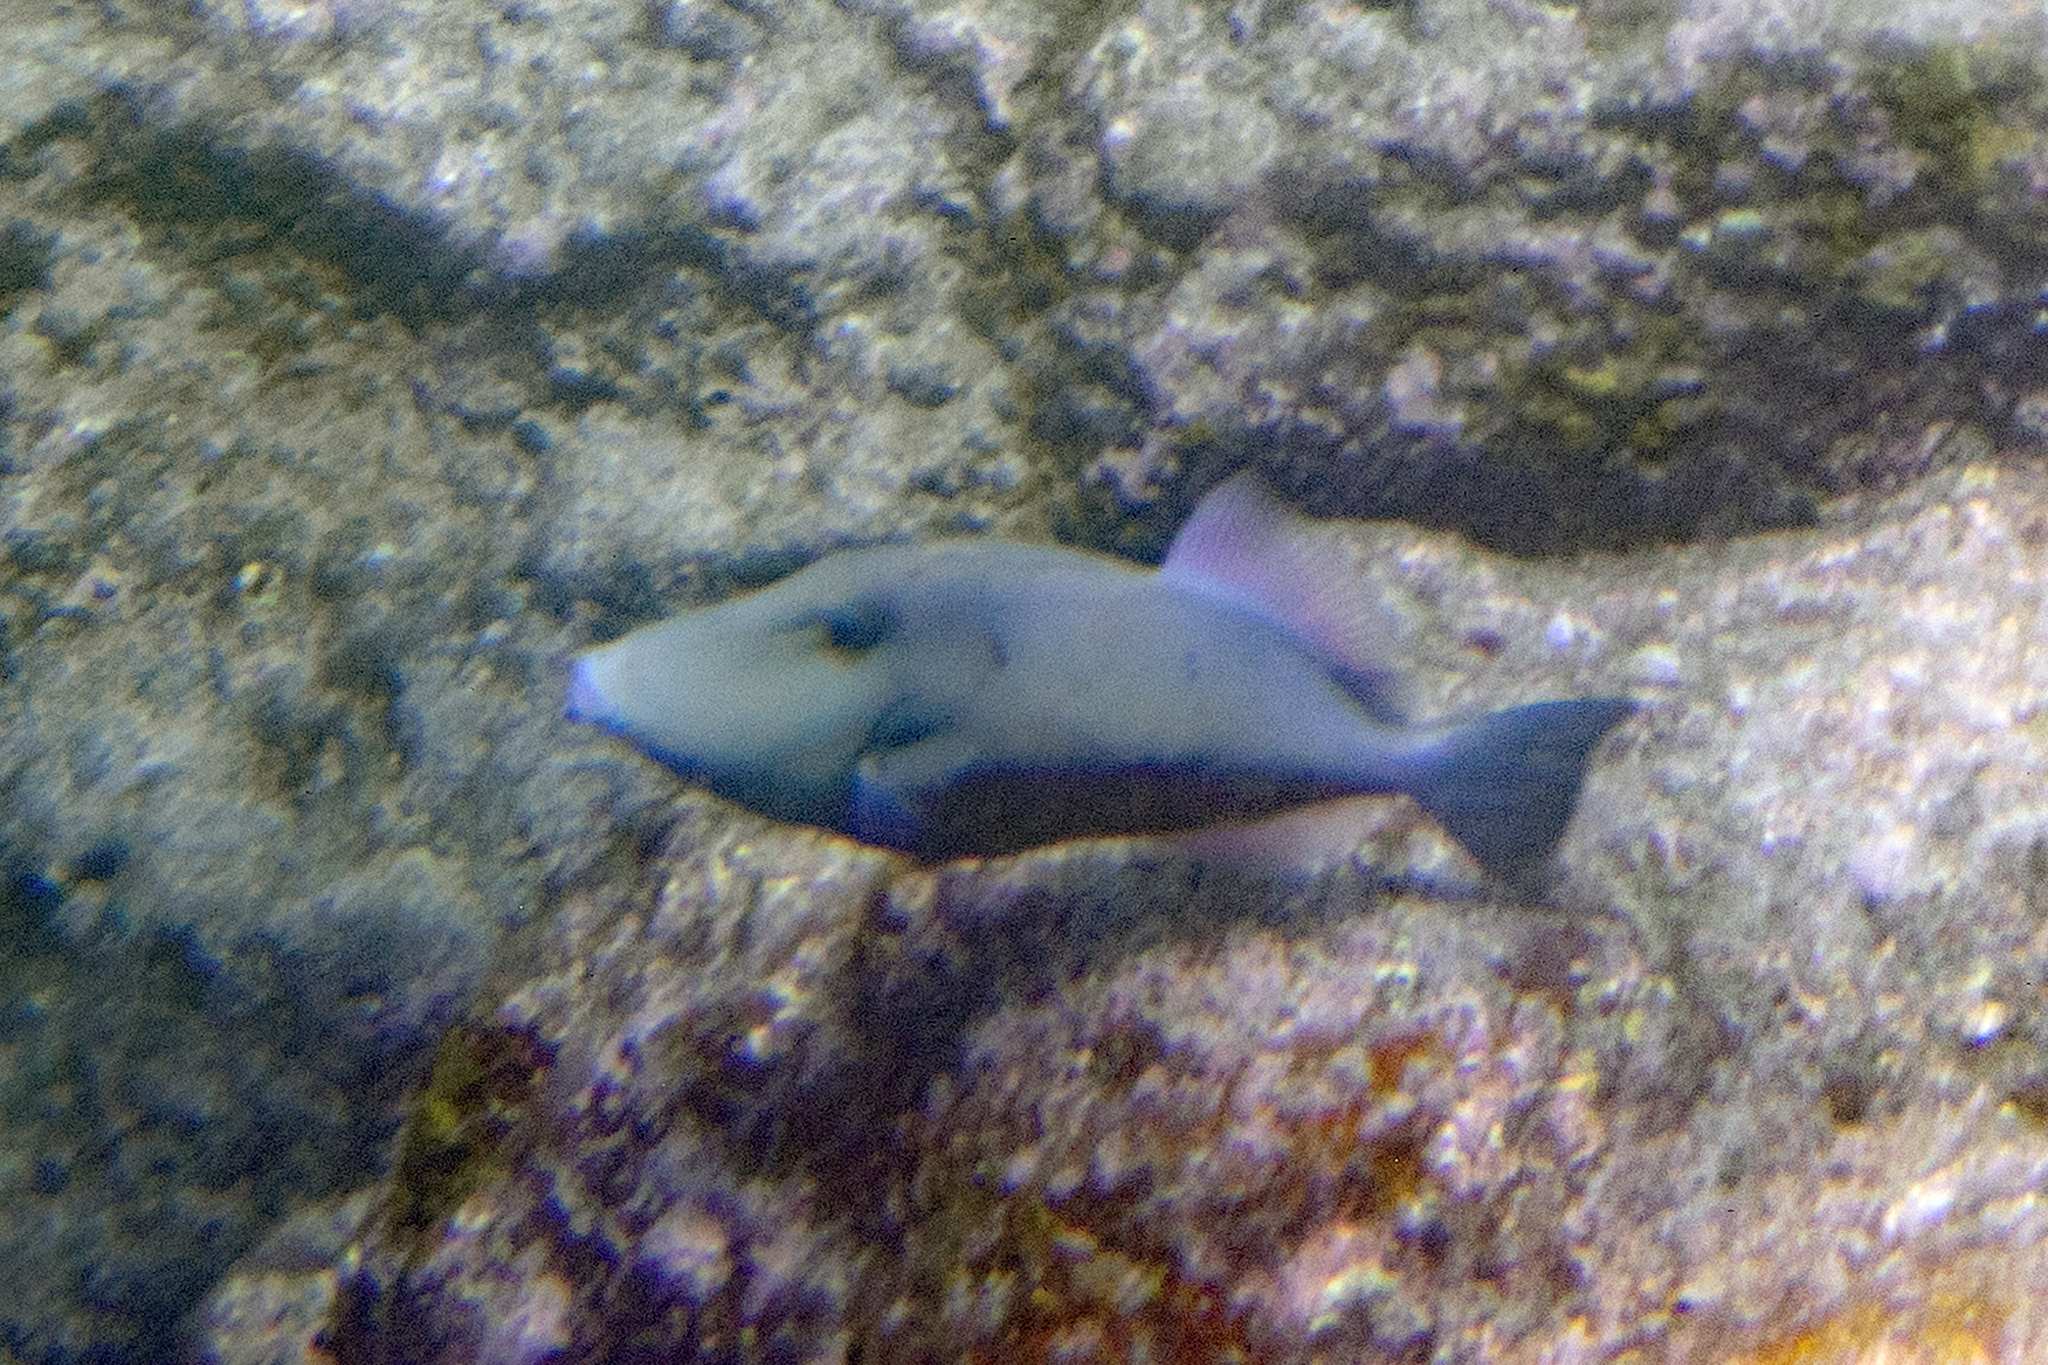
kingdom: Animalia
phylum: Chordata
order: Tetraodontiformes
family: Balistidae
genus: Sufflamen
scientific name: Sufflamen verres
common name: Orangeside triggerfish
